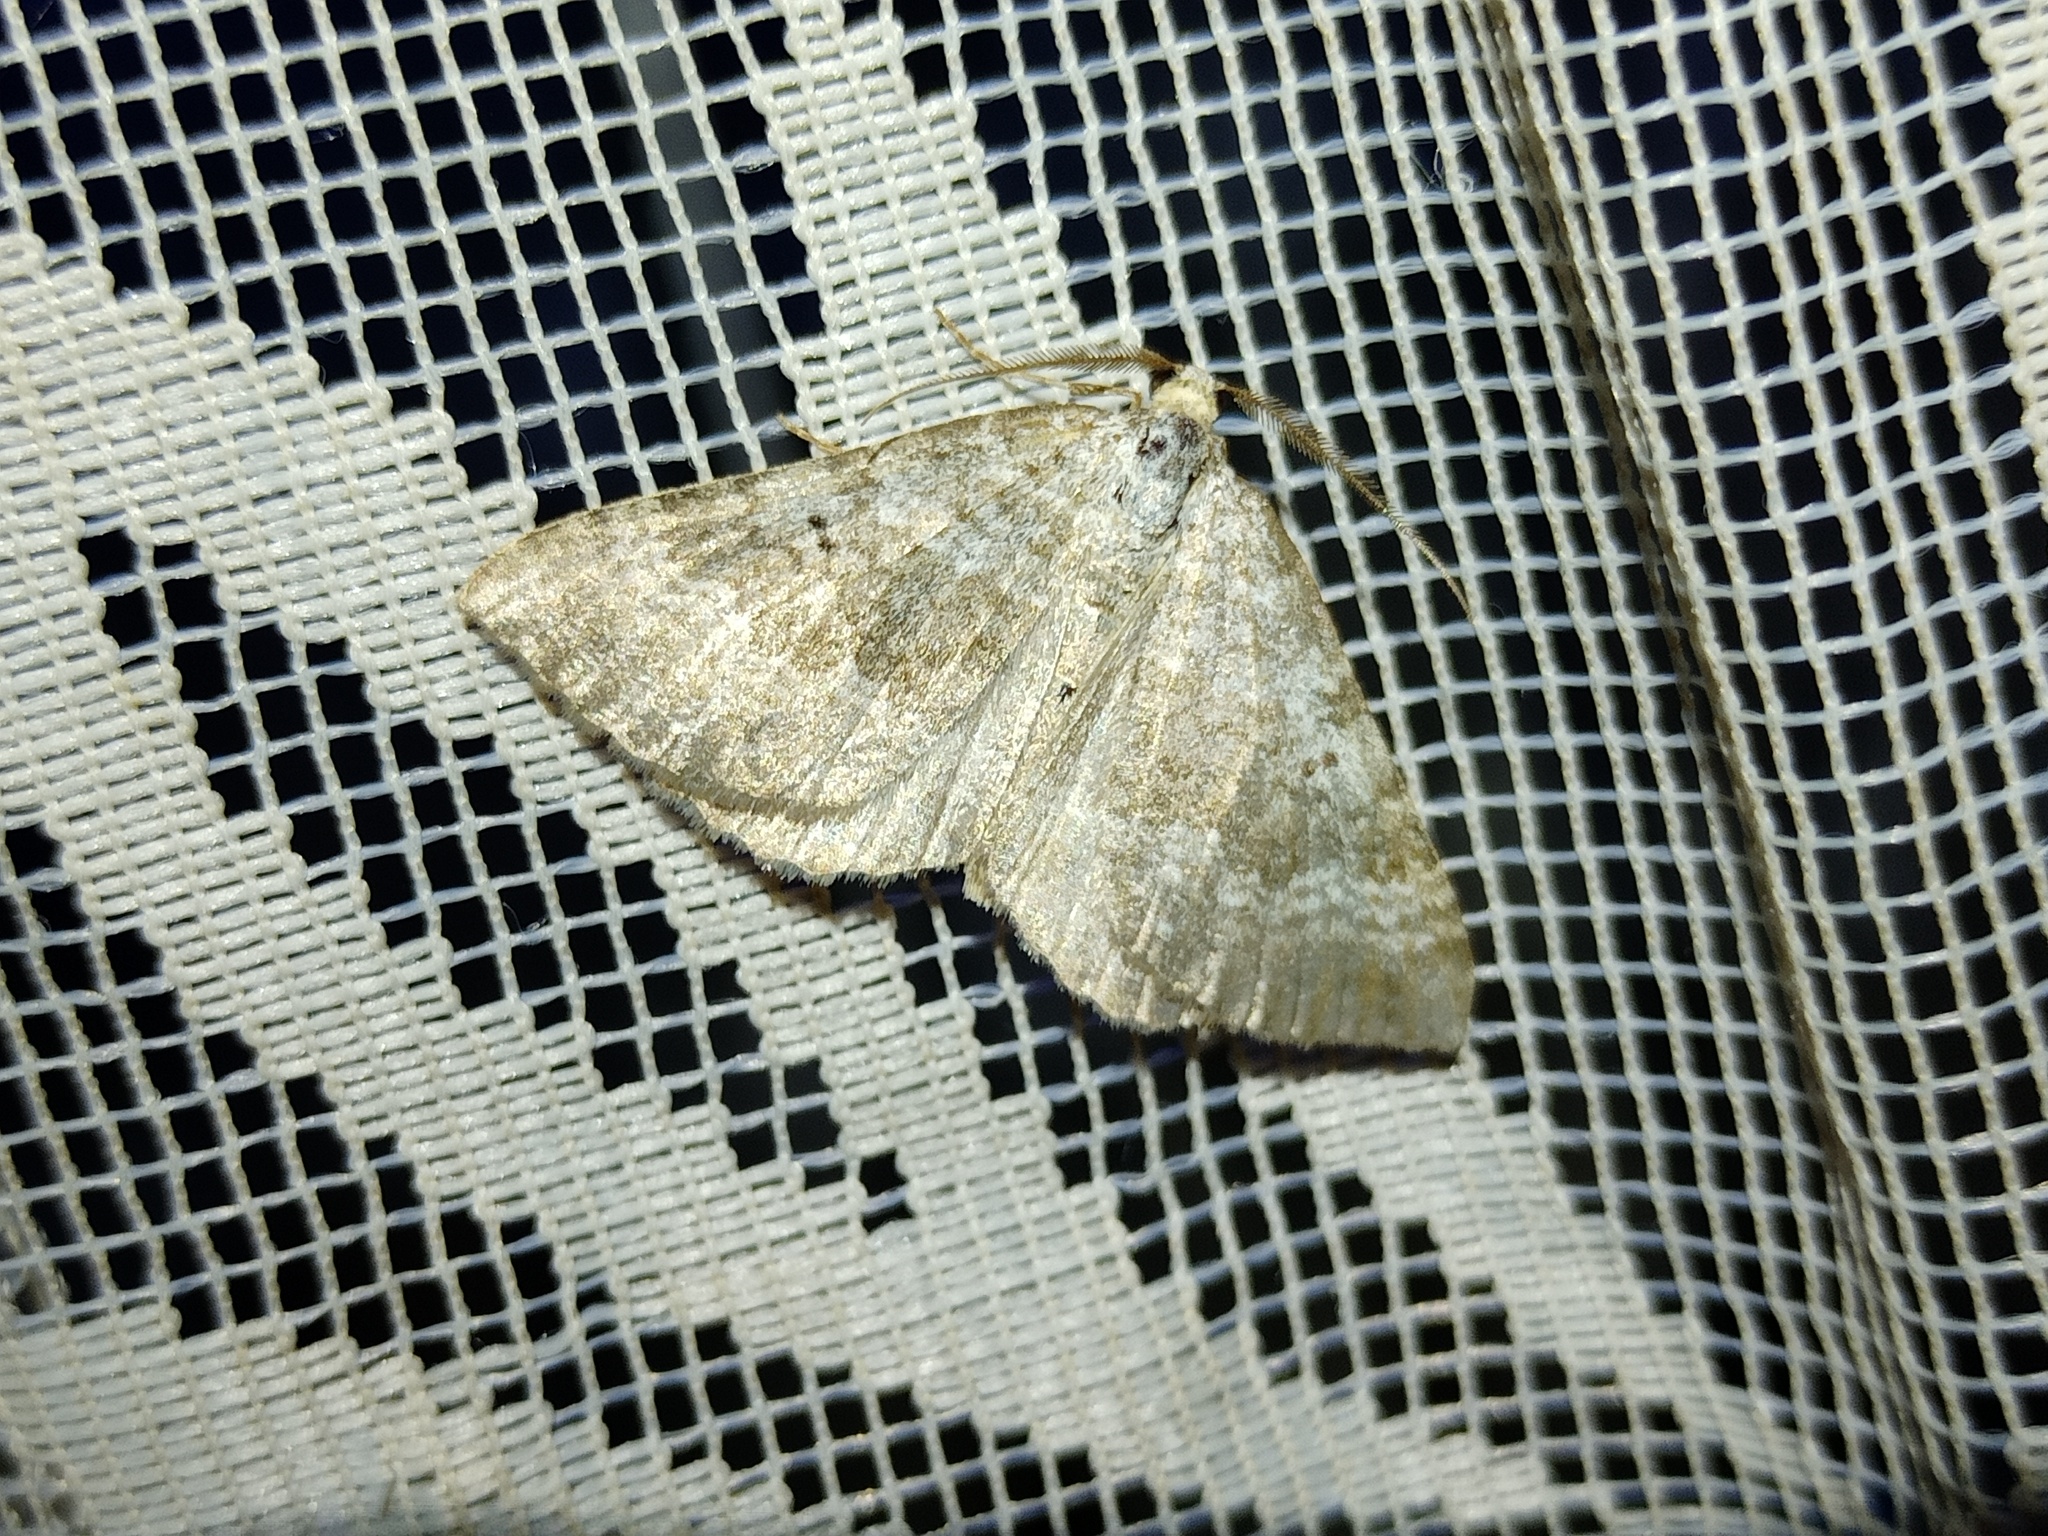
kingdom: Animalia
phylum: Arthropoda
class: Insecta
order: Lepidoptera
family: Geometridae
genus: Scotopteryx
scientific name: Scotopteryx bipunctaria
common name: Chalk carpet
